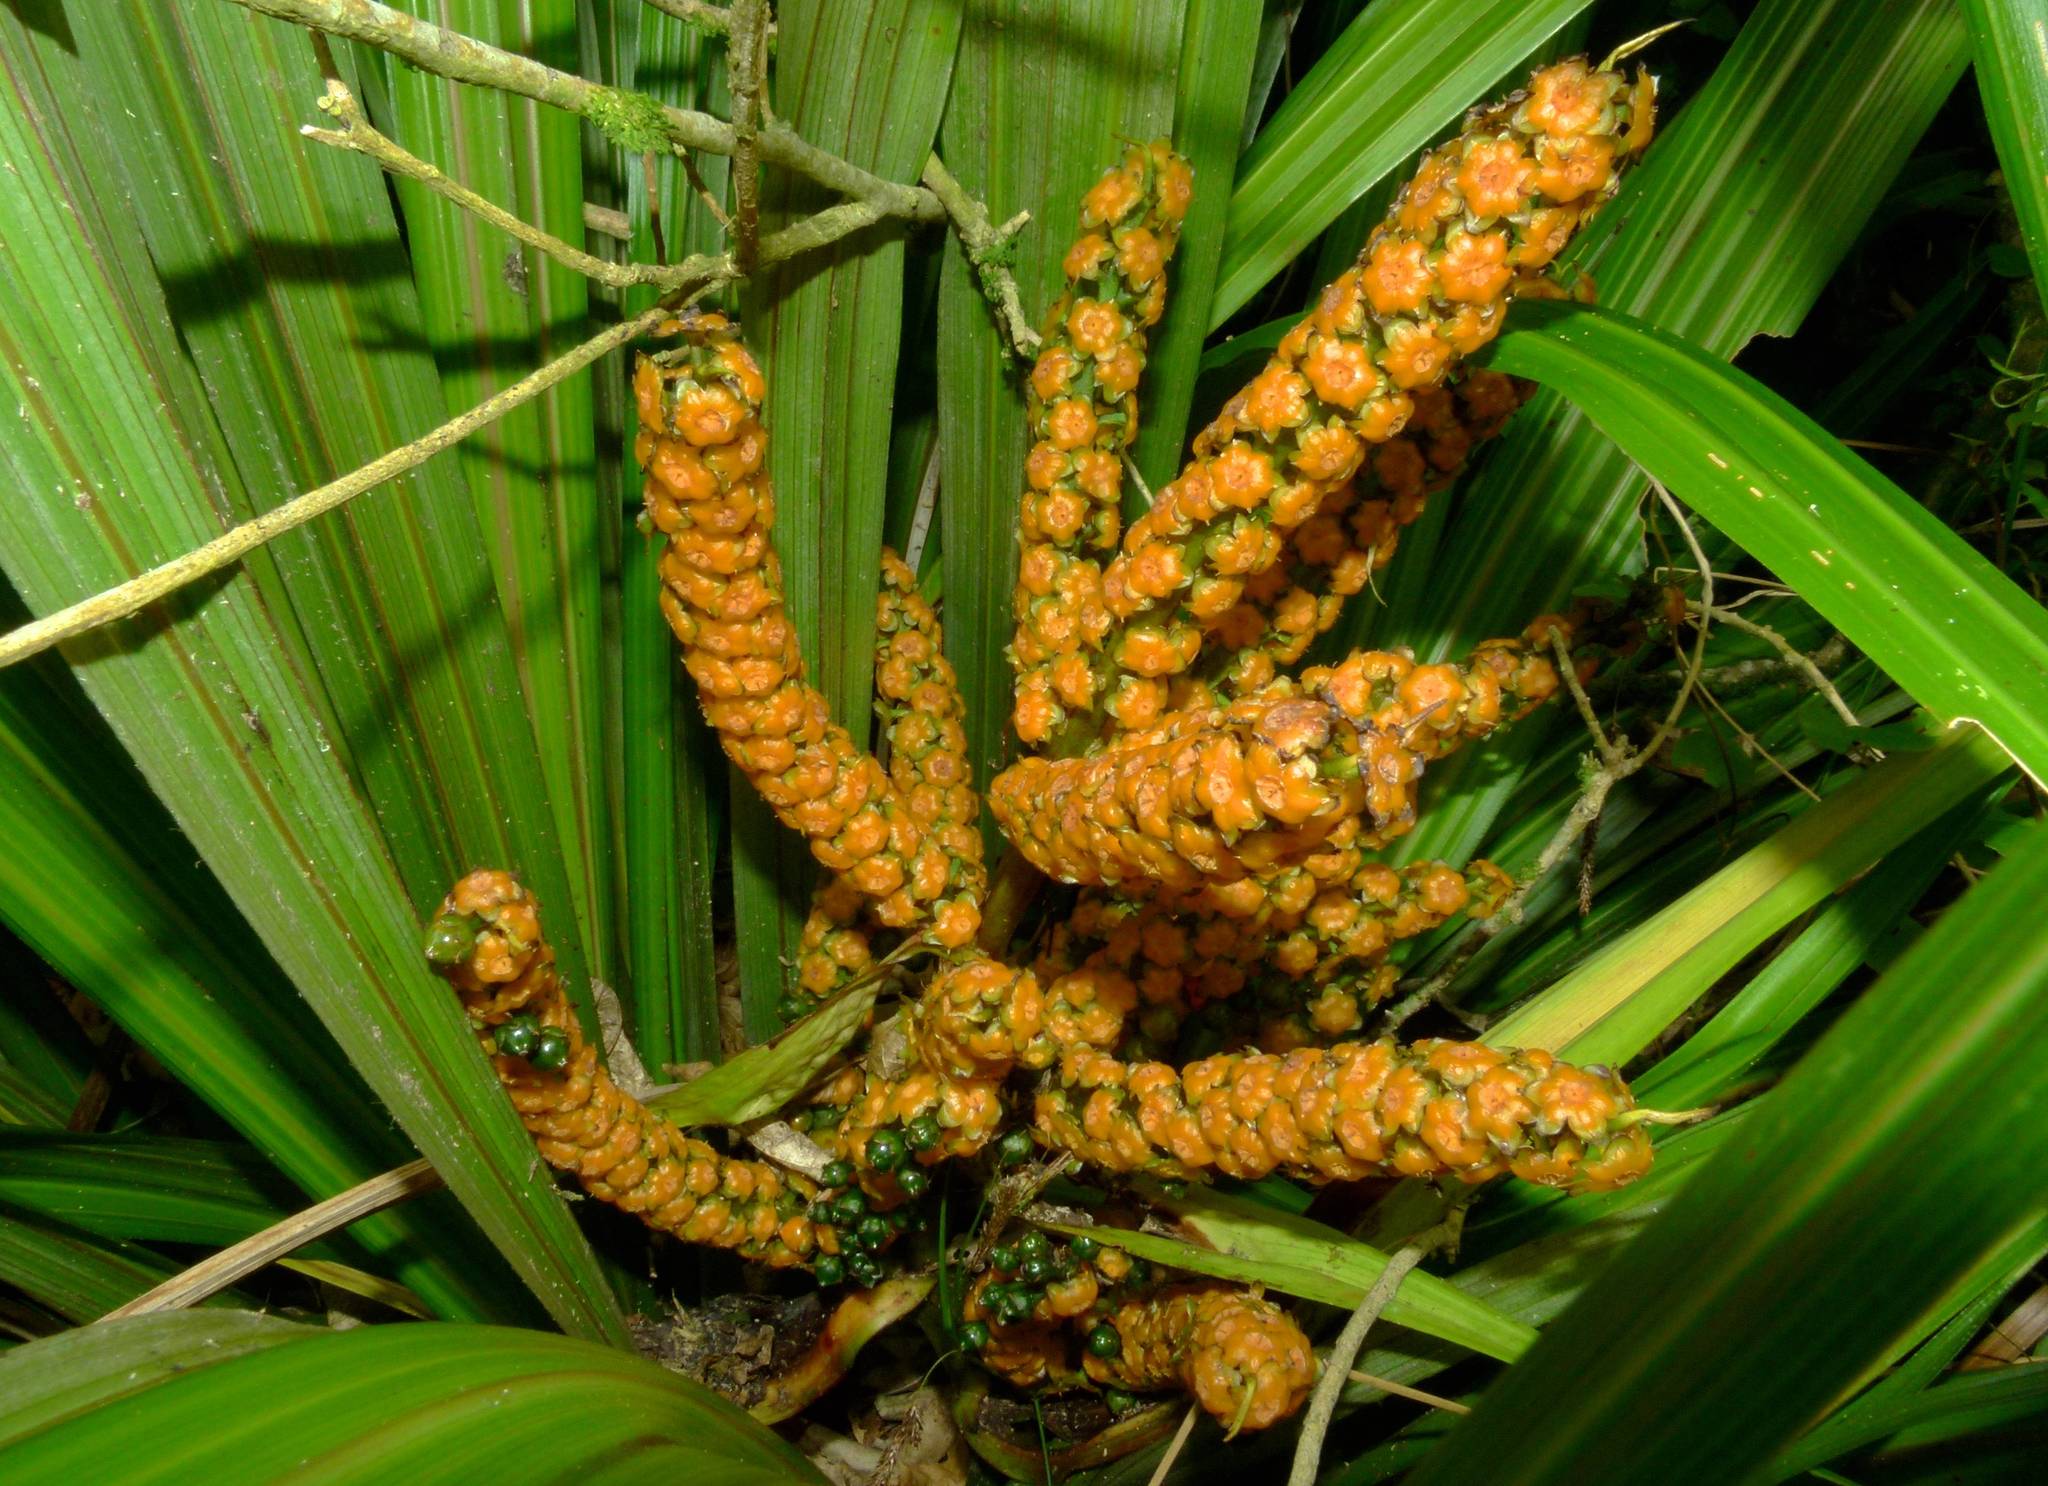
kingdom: Plantae
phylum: Tracheophyta
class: Liliopsida
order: Asparagales
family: Asteliaceae
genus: Astelia
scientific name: Astelia fragrans
